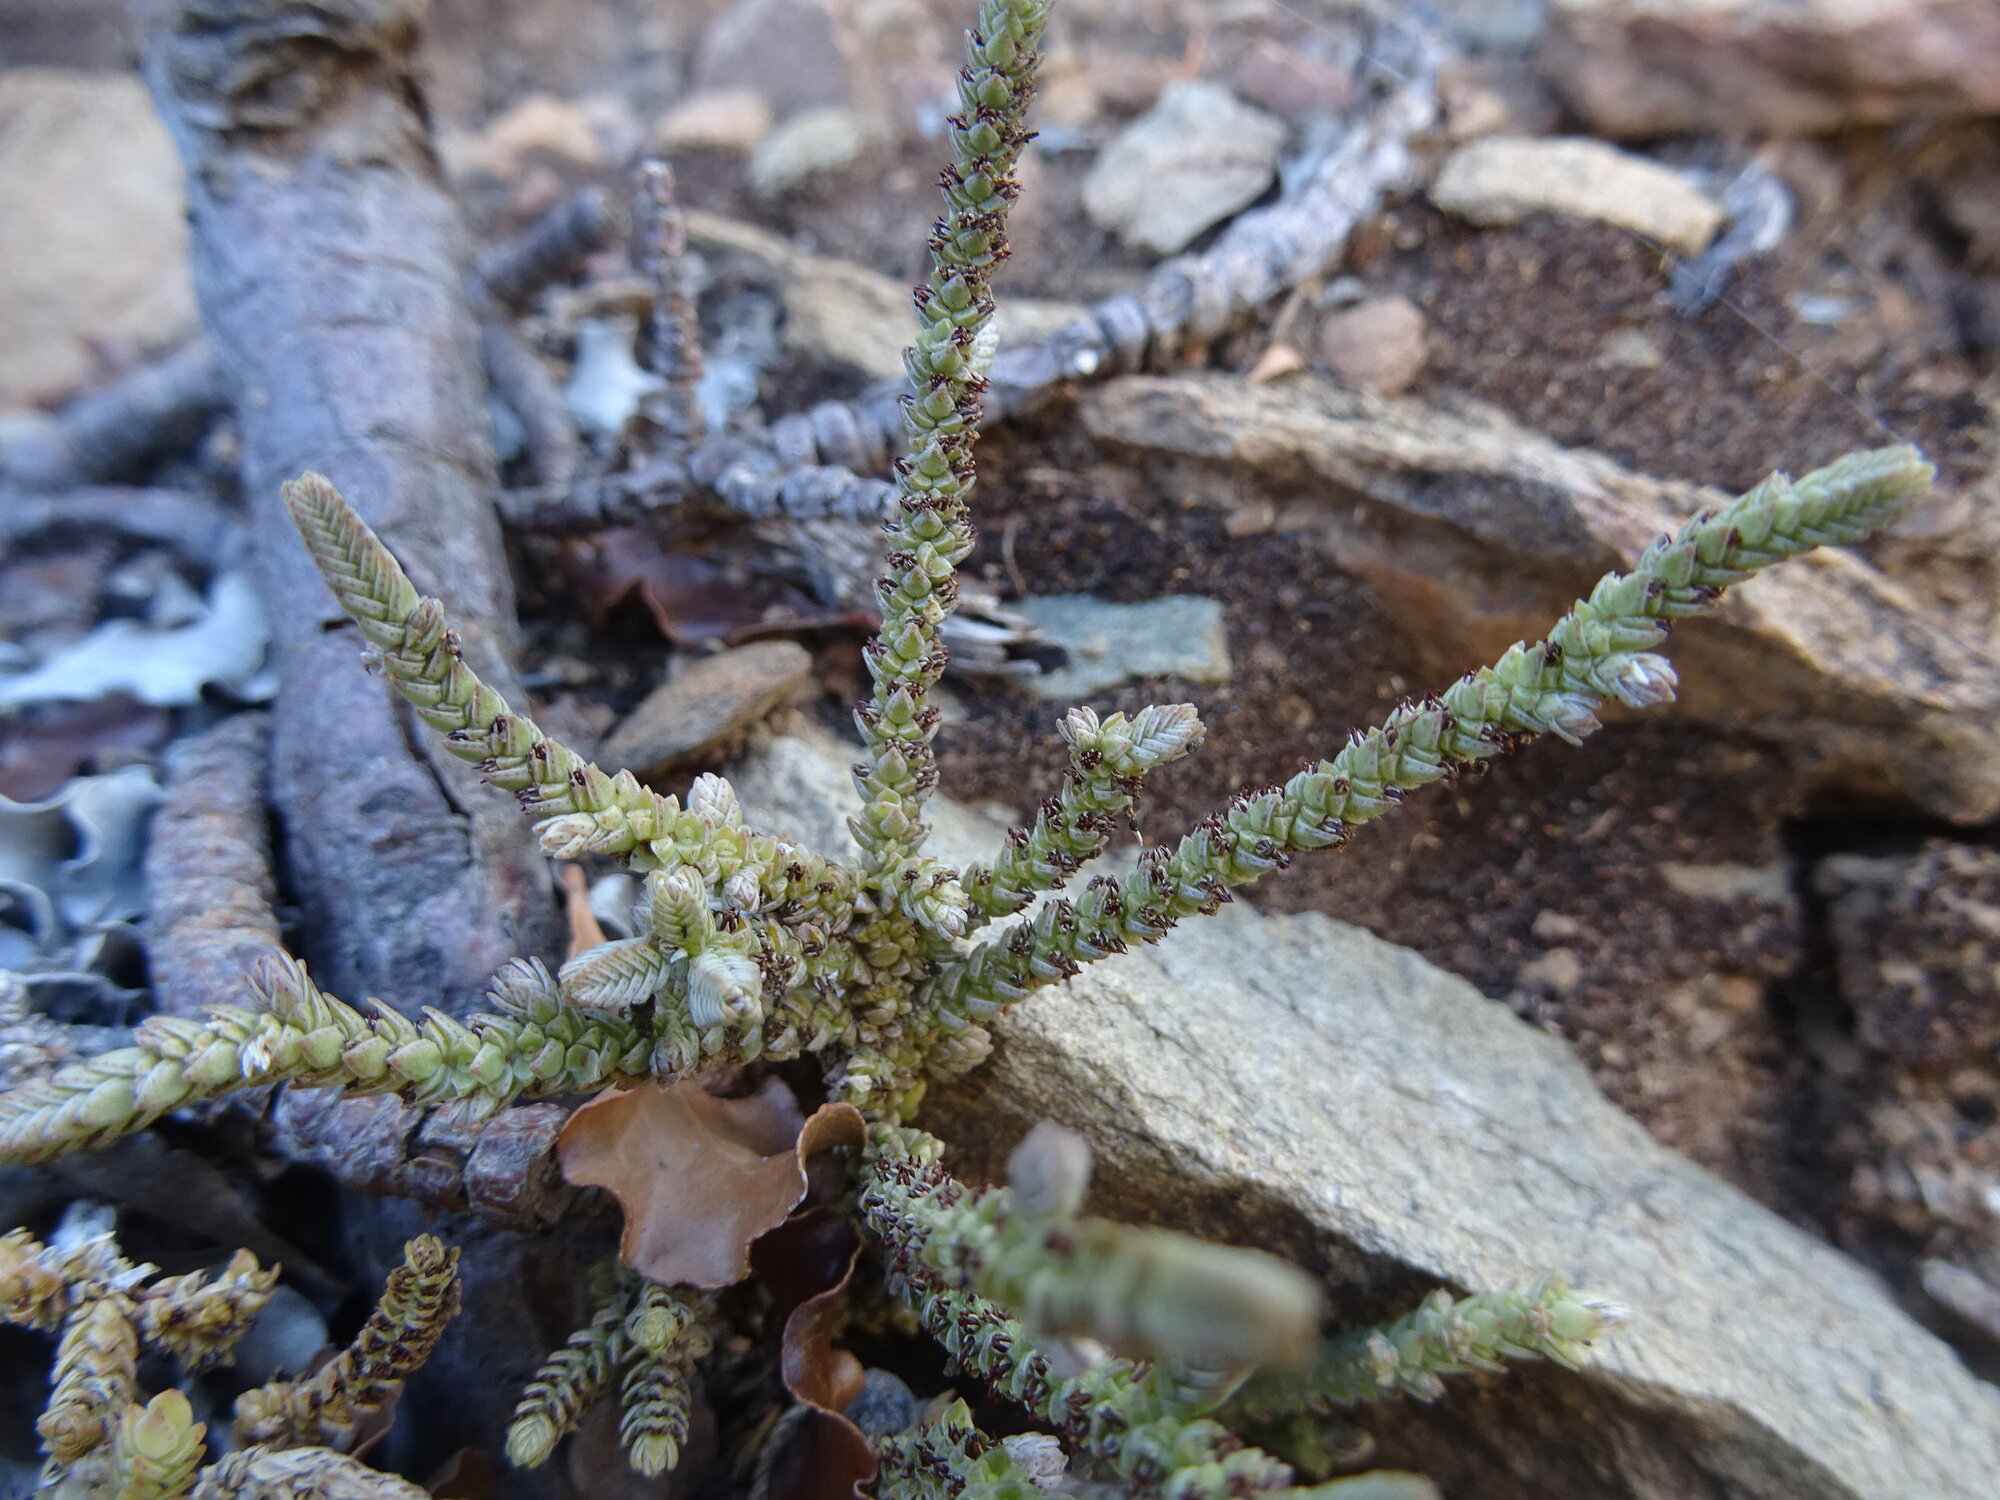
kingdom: Plantae
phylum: Tracheophyta
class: Magnoliopsida
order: Saxifragales
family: Crassulaceae
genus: Crassula
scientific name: Crassula muscosa
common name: Toy-cypress
